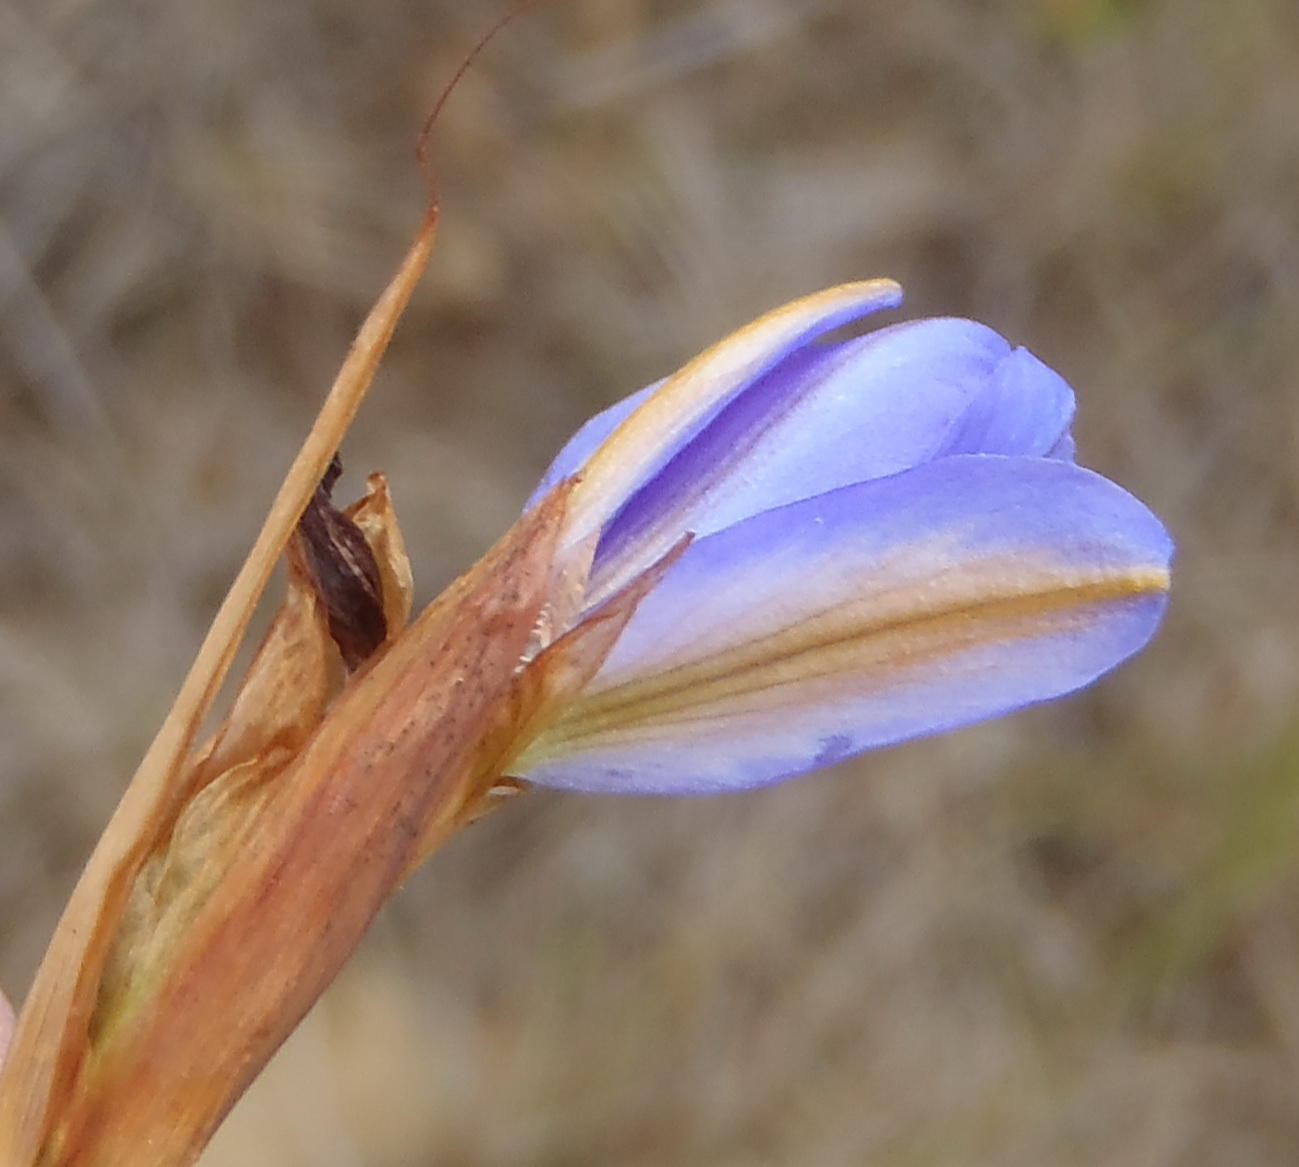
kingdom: Plantae
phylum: Tracheophyta
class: Liliopsida
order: Asparagales
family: Iridaceae
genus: Aristea
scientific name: Aristea pusilla
